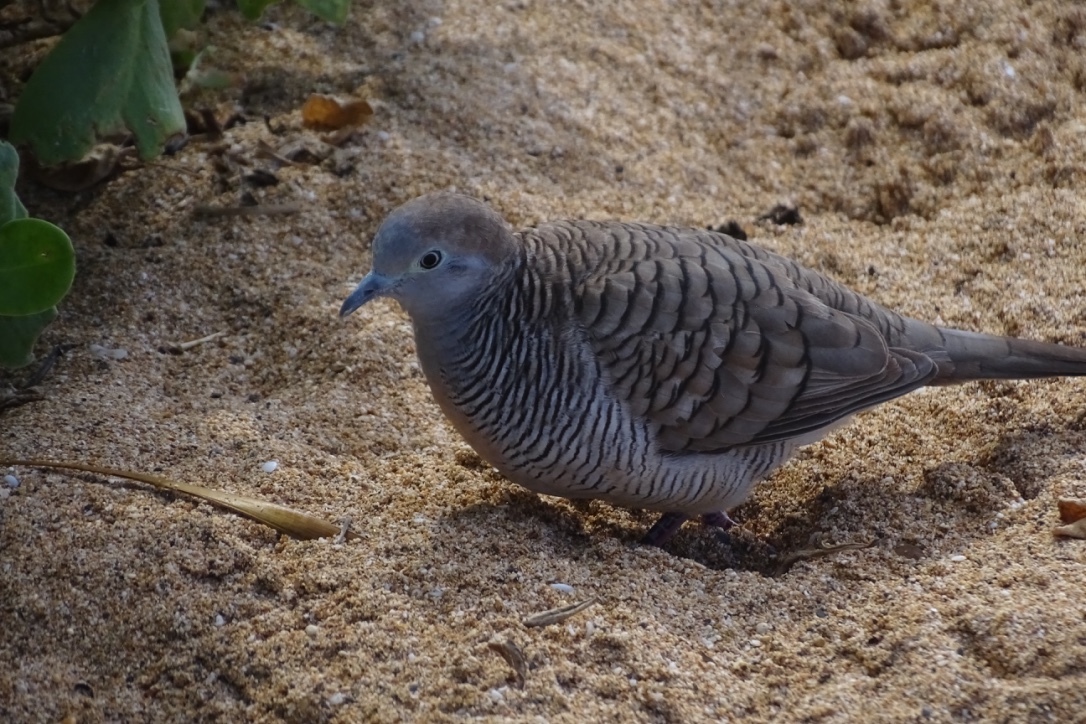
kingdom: Animalia
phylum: Chordata
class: Aves
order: Columbiformes
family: Columbidae
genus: Geopelia
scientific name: Geopelia striata
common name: Zebra dove
